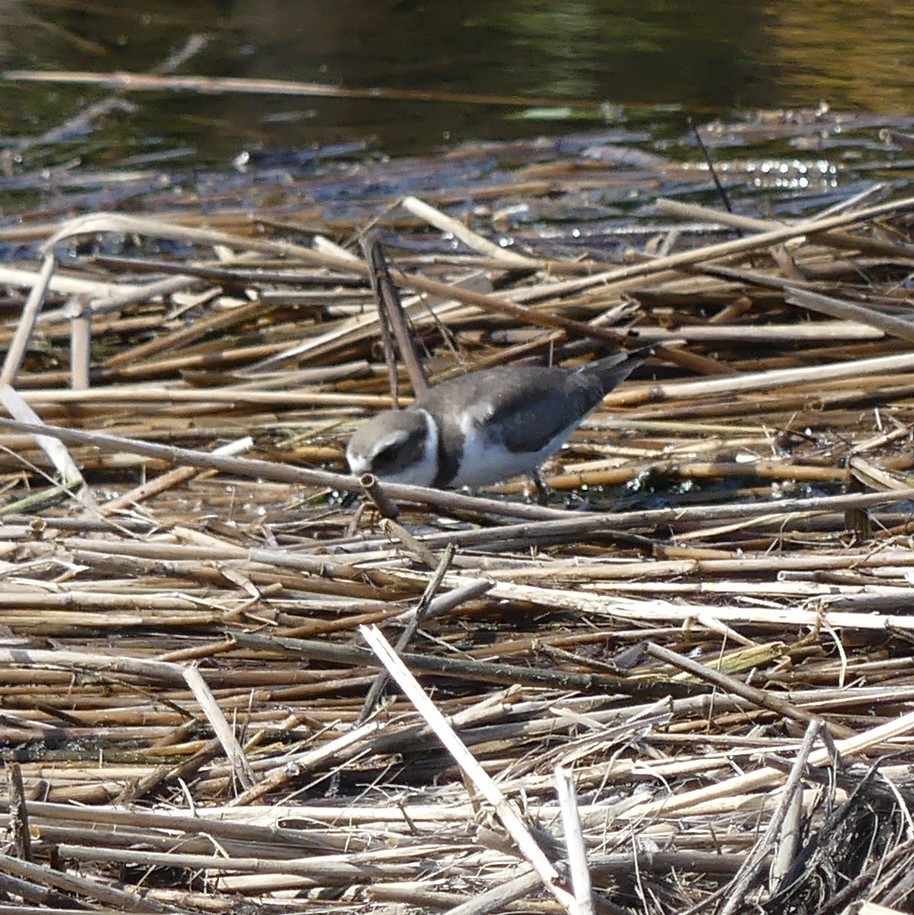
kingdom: Animalia
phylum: Chordata
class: Aves
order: Charadriiformes
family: Charadriidae
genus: Charadrius
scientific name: Charadrius semipalmatus
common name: Semipalmated plover
